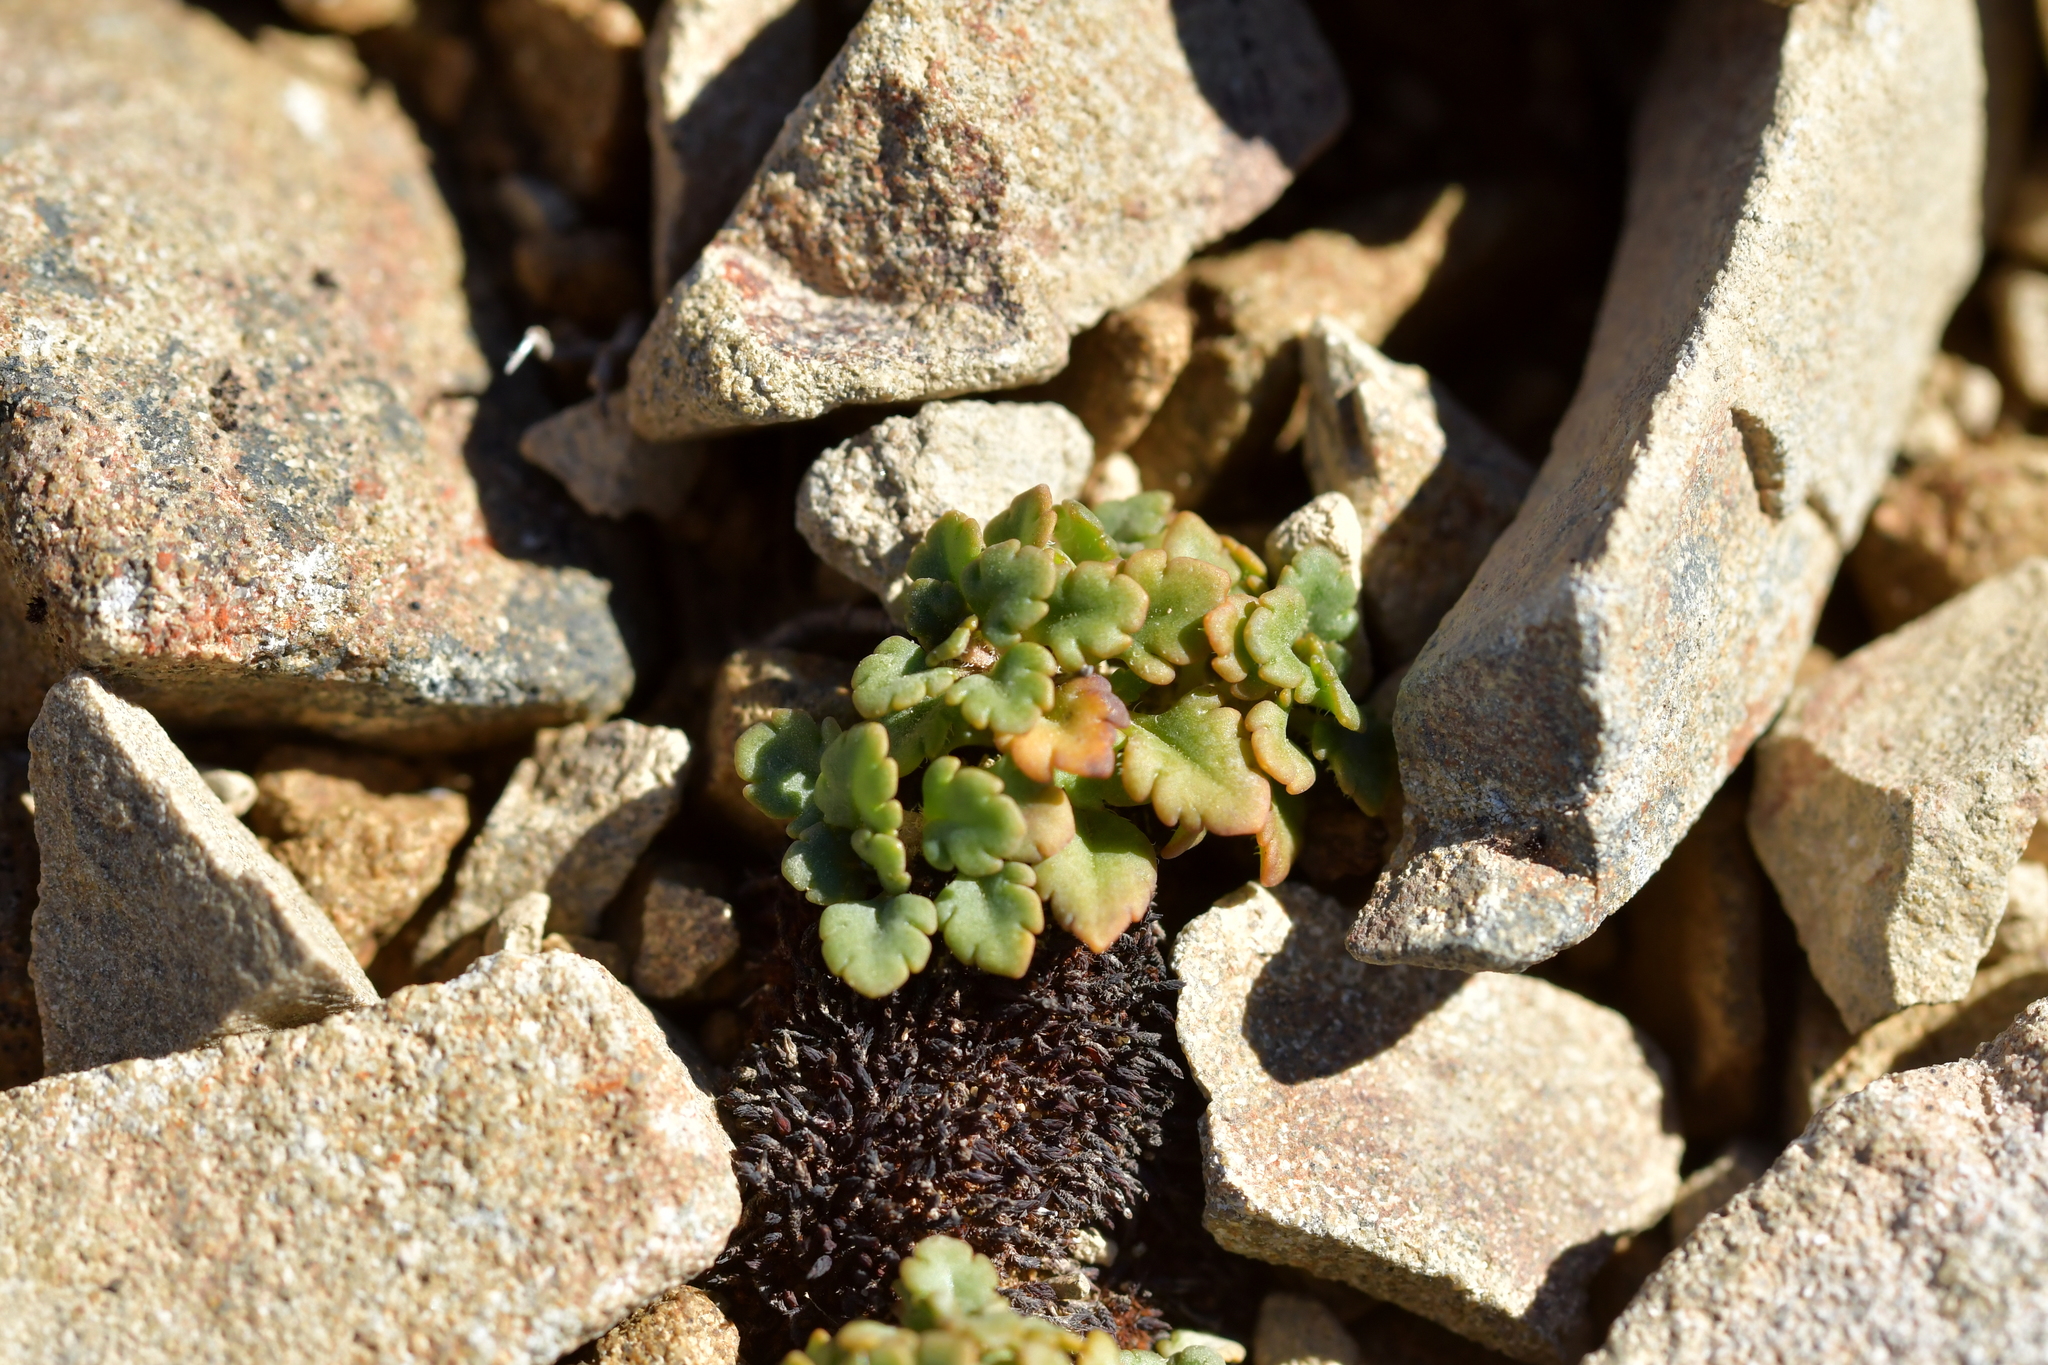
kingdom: Plantae
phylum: Tracheophyta
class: Magnoliopsida
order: Lamiales
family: Plantaginaceae
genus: Veronica
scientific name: Veronica spathulata
